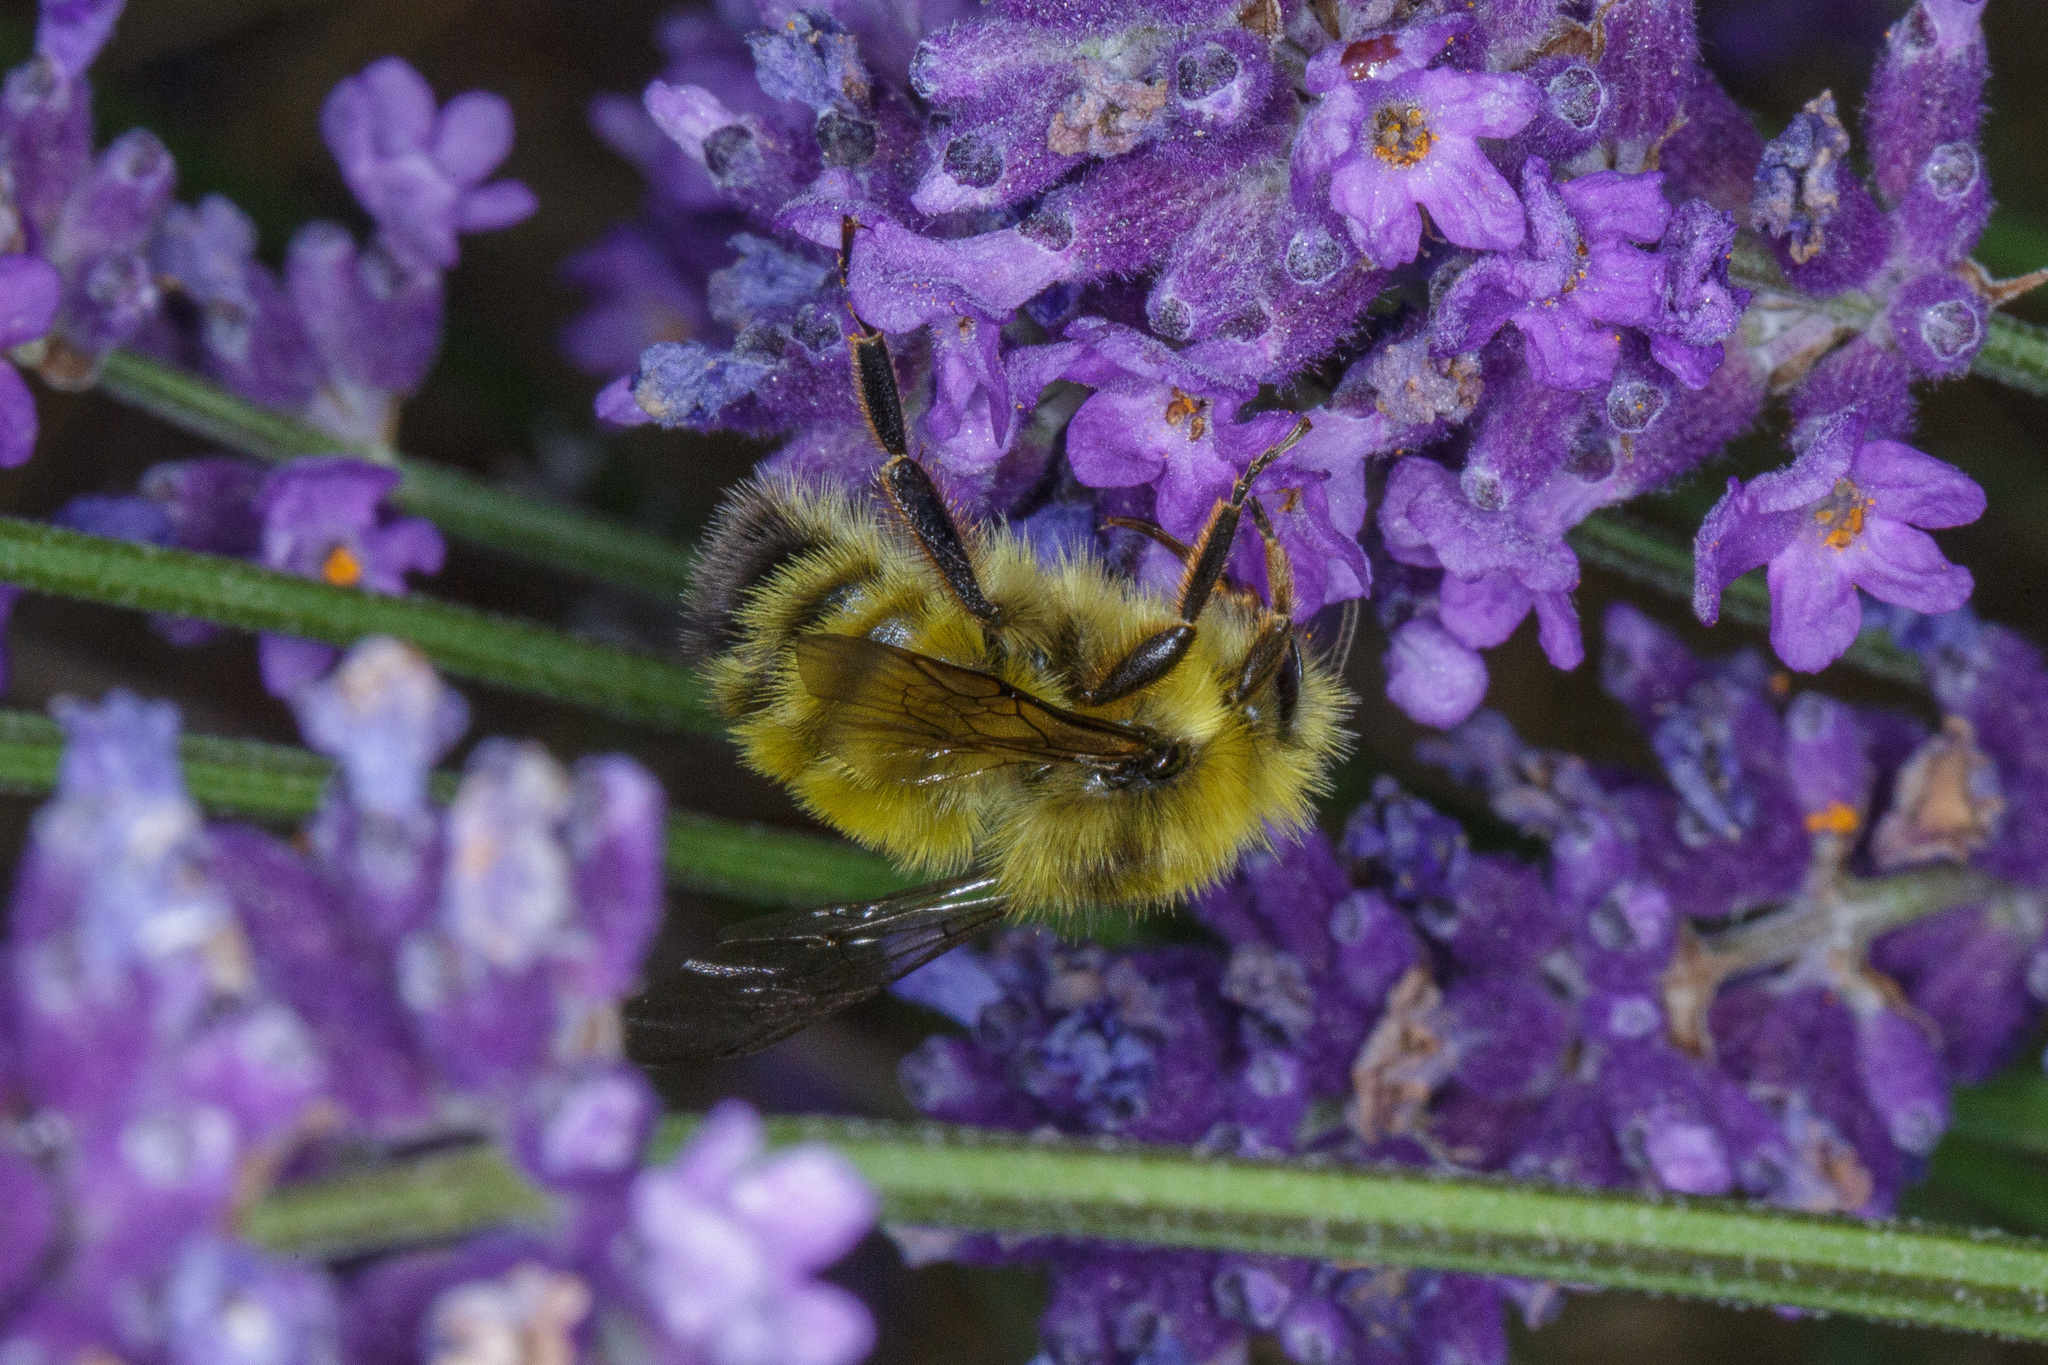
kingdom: Animalia
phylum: Arthropoda
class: Insecta
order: Hymenoptera
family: Apidae
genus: Bombus
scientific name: Bombus flavifrons
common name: Yellow head bumble bee
